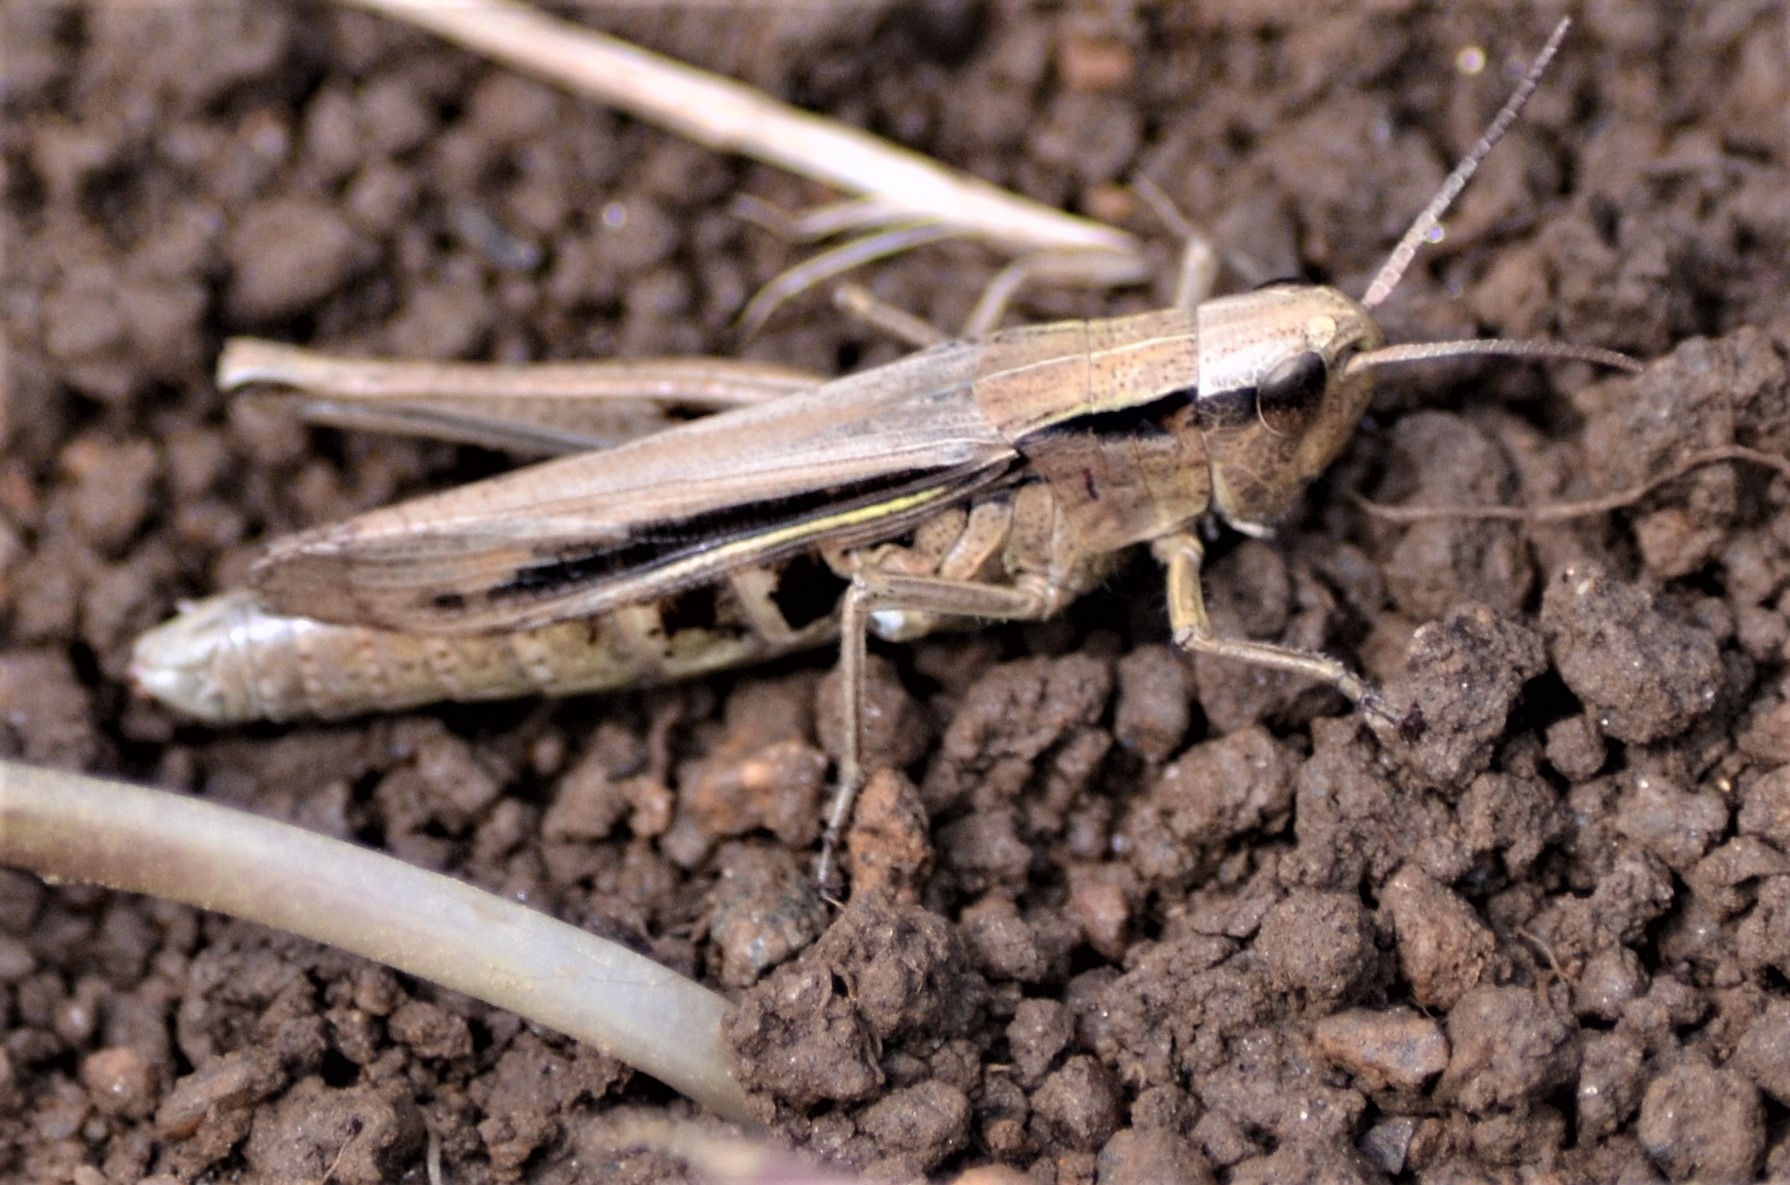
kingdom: Animalia
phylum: Arthropoda
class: Insecta
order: Orthoptera
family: Acrididae
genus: Chorthippus
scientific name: Chorthippus albomarginatus
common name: Lesser marsh grasshopper
